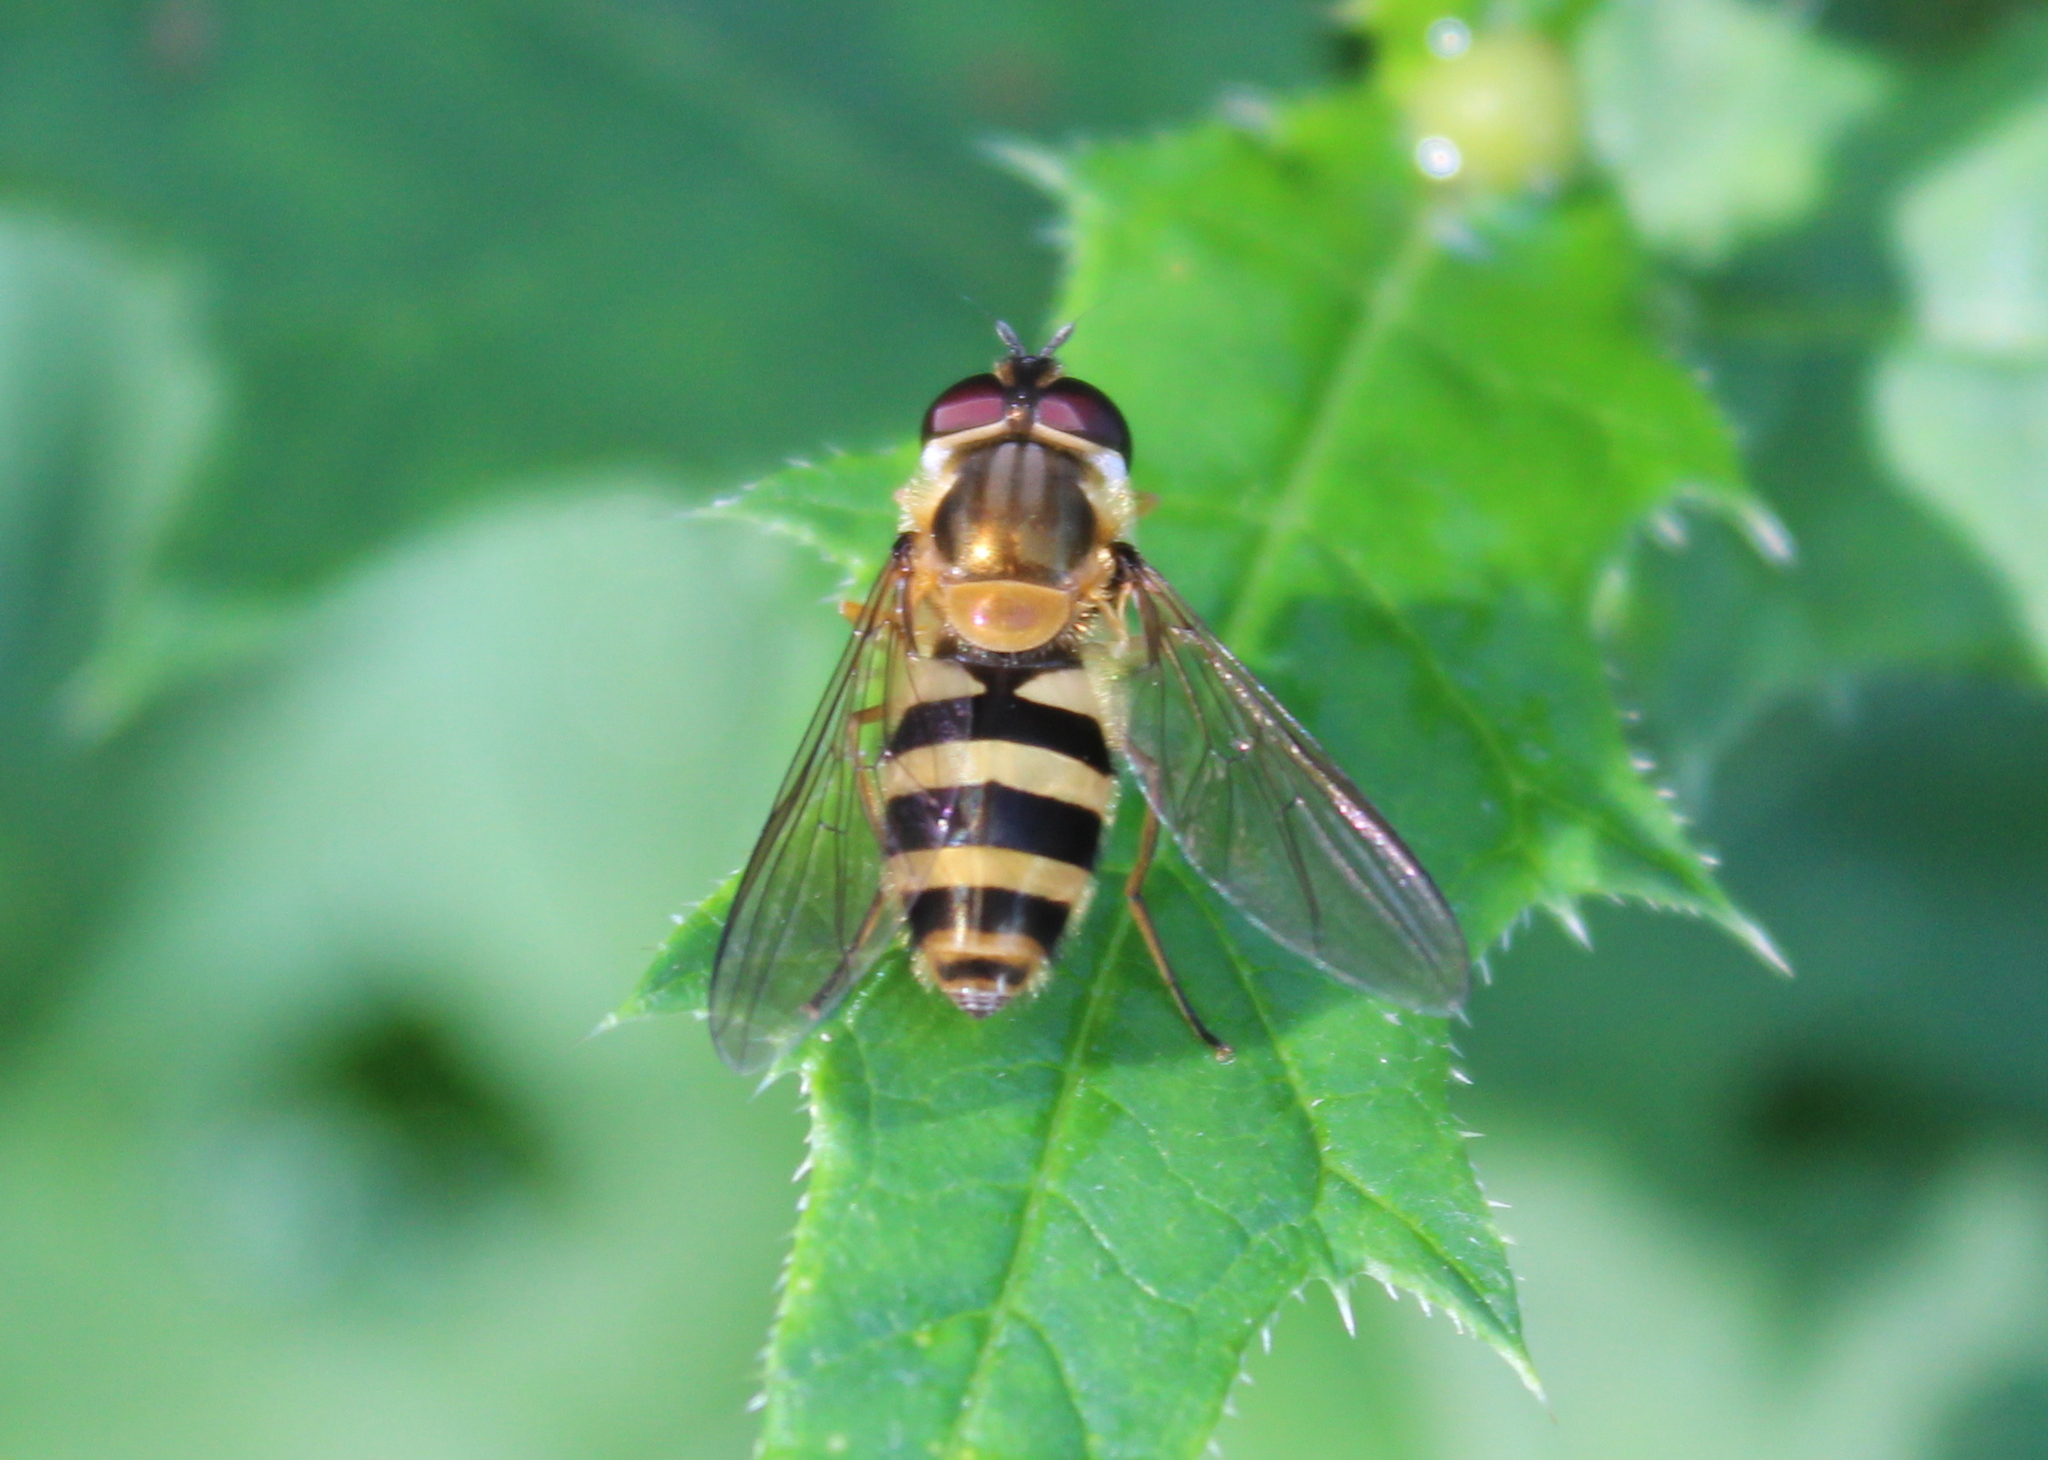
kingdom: Animalia
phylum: Arthropoda
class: Insecta
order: Diptera
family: Syrphidae
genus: Epistrophe
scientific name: Epistrophe grossulariae
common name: Black-horned smoothtail
